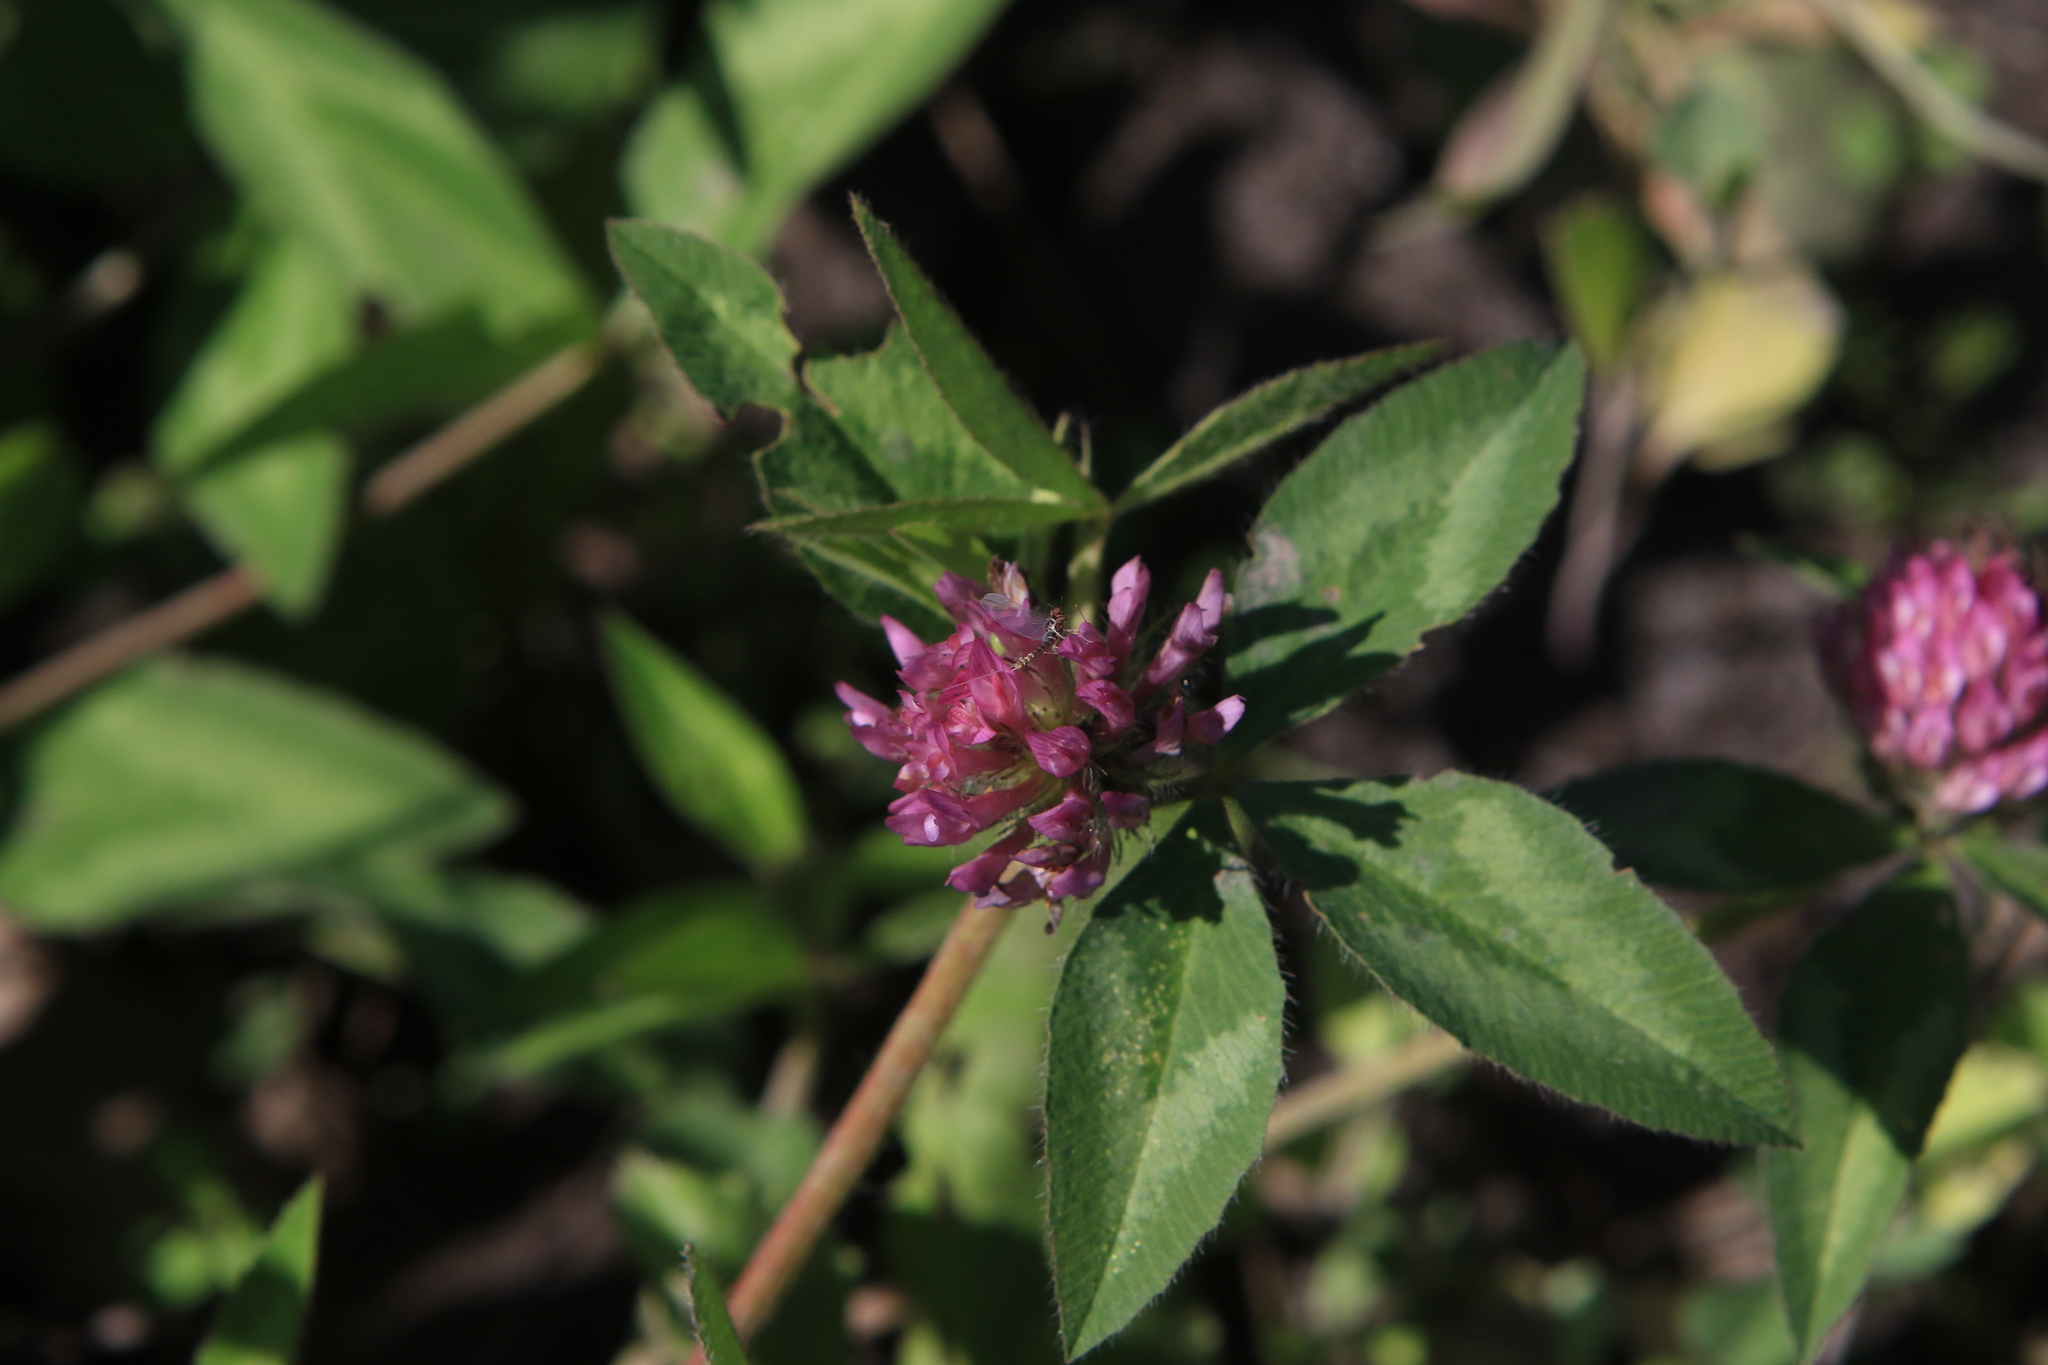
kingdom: Plantae
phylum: Tracheophyta
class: Magnoliopsida
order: Fabales
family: Fabaceae
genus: Trifolium
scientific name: Trifolium pratense
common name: Red clover
